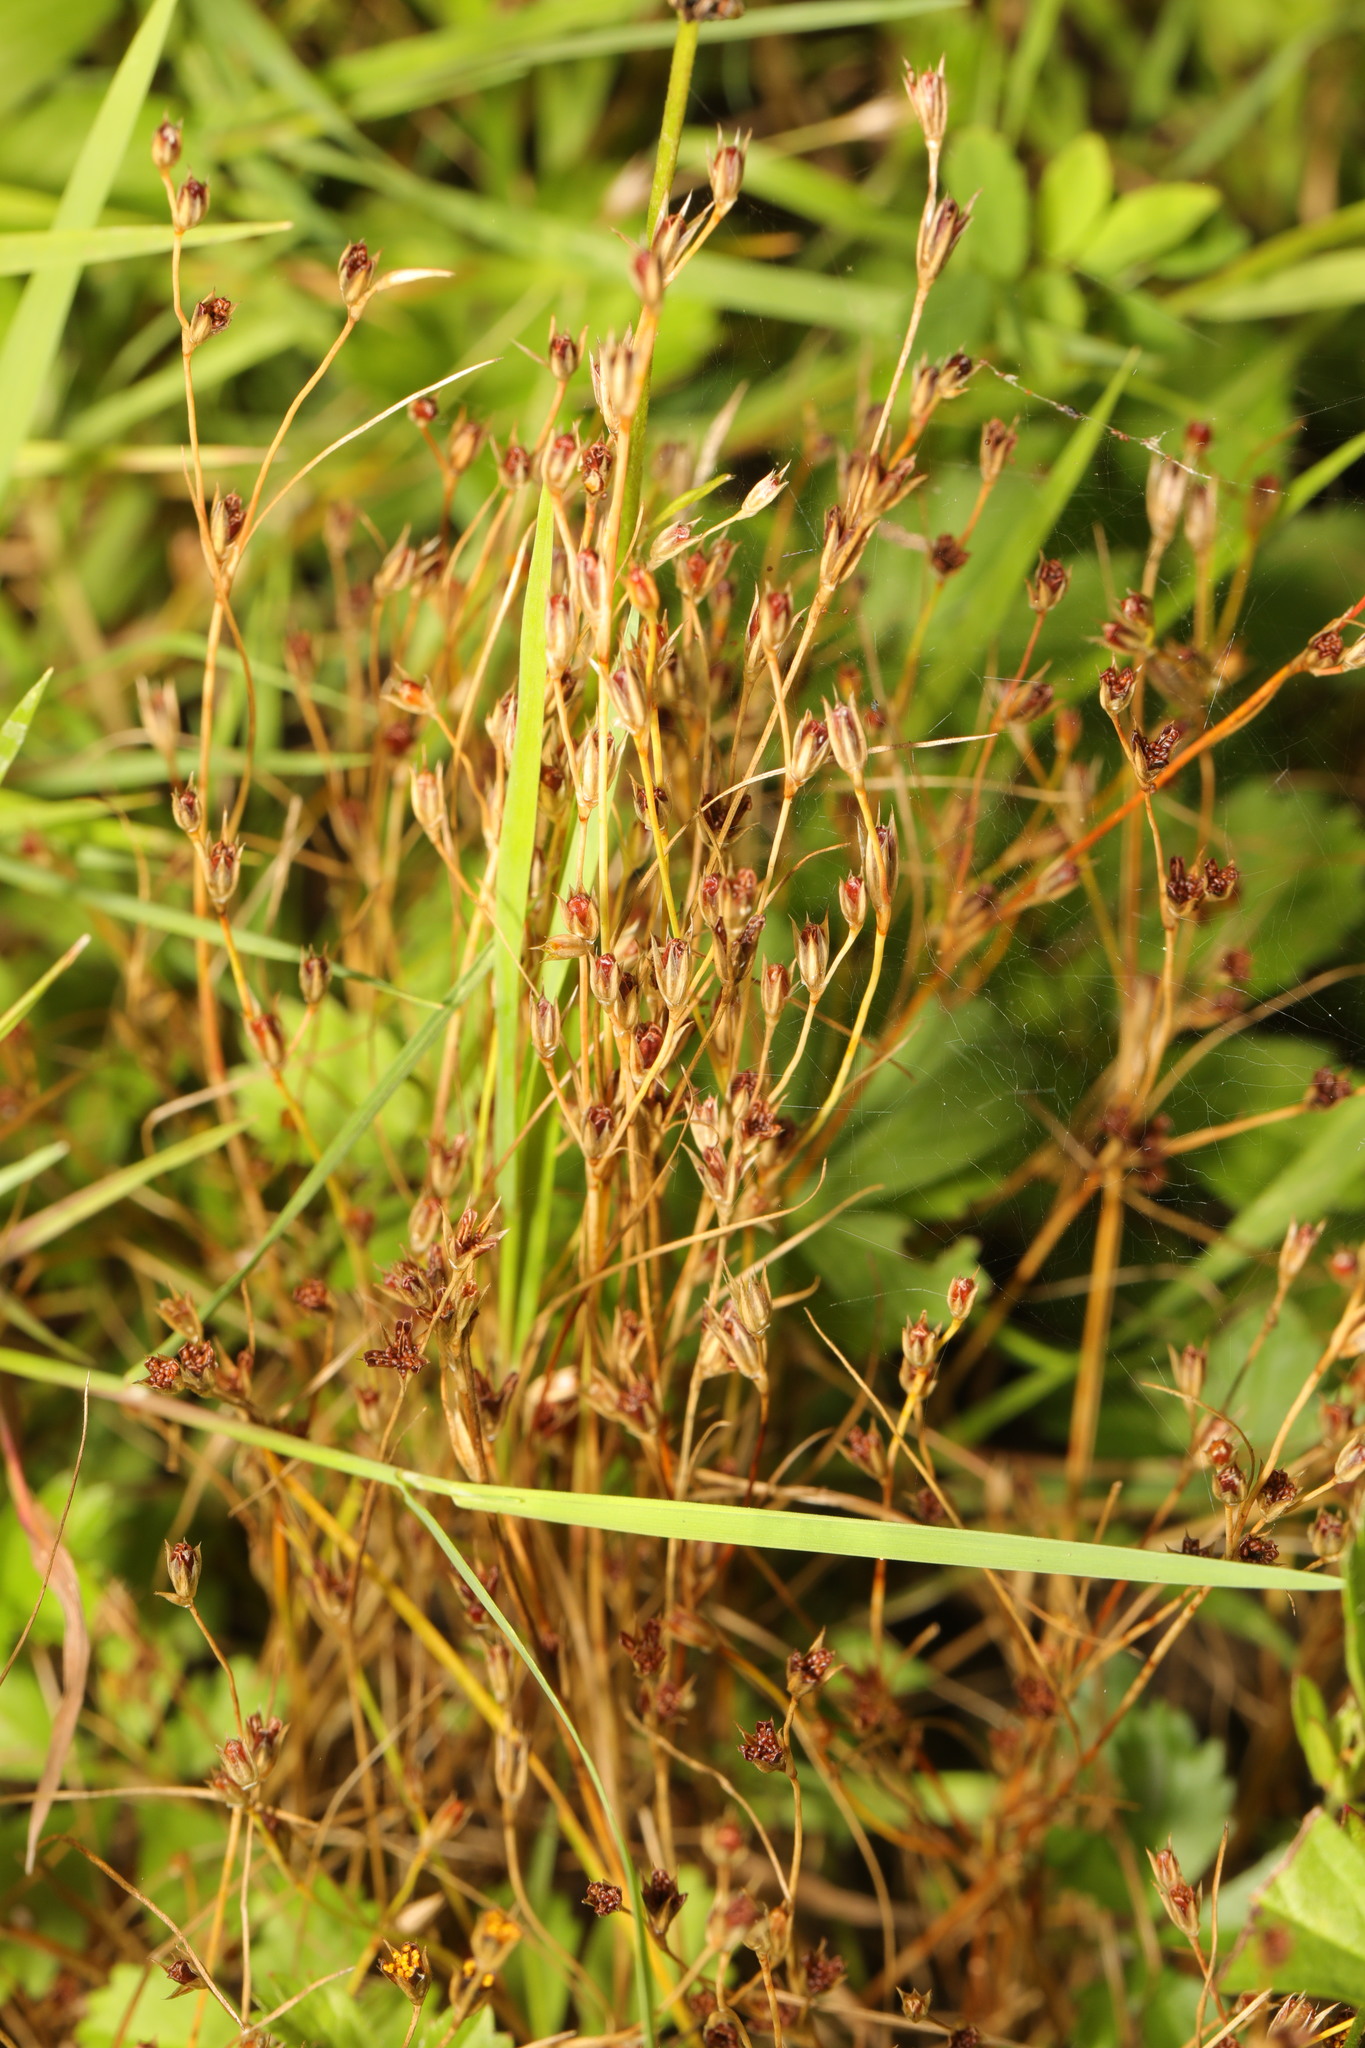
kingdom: Plantae
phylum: Tracheophyta
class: Liliopsida
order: Poales
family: Juncaceae
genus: Juncus
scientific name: Juncus bufonius
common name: Toad rush
